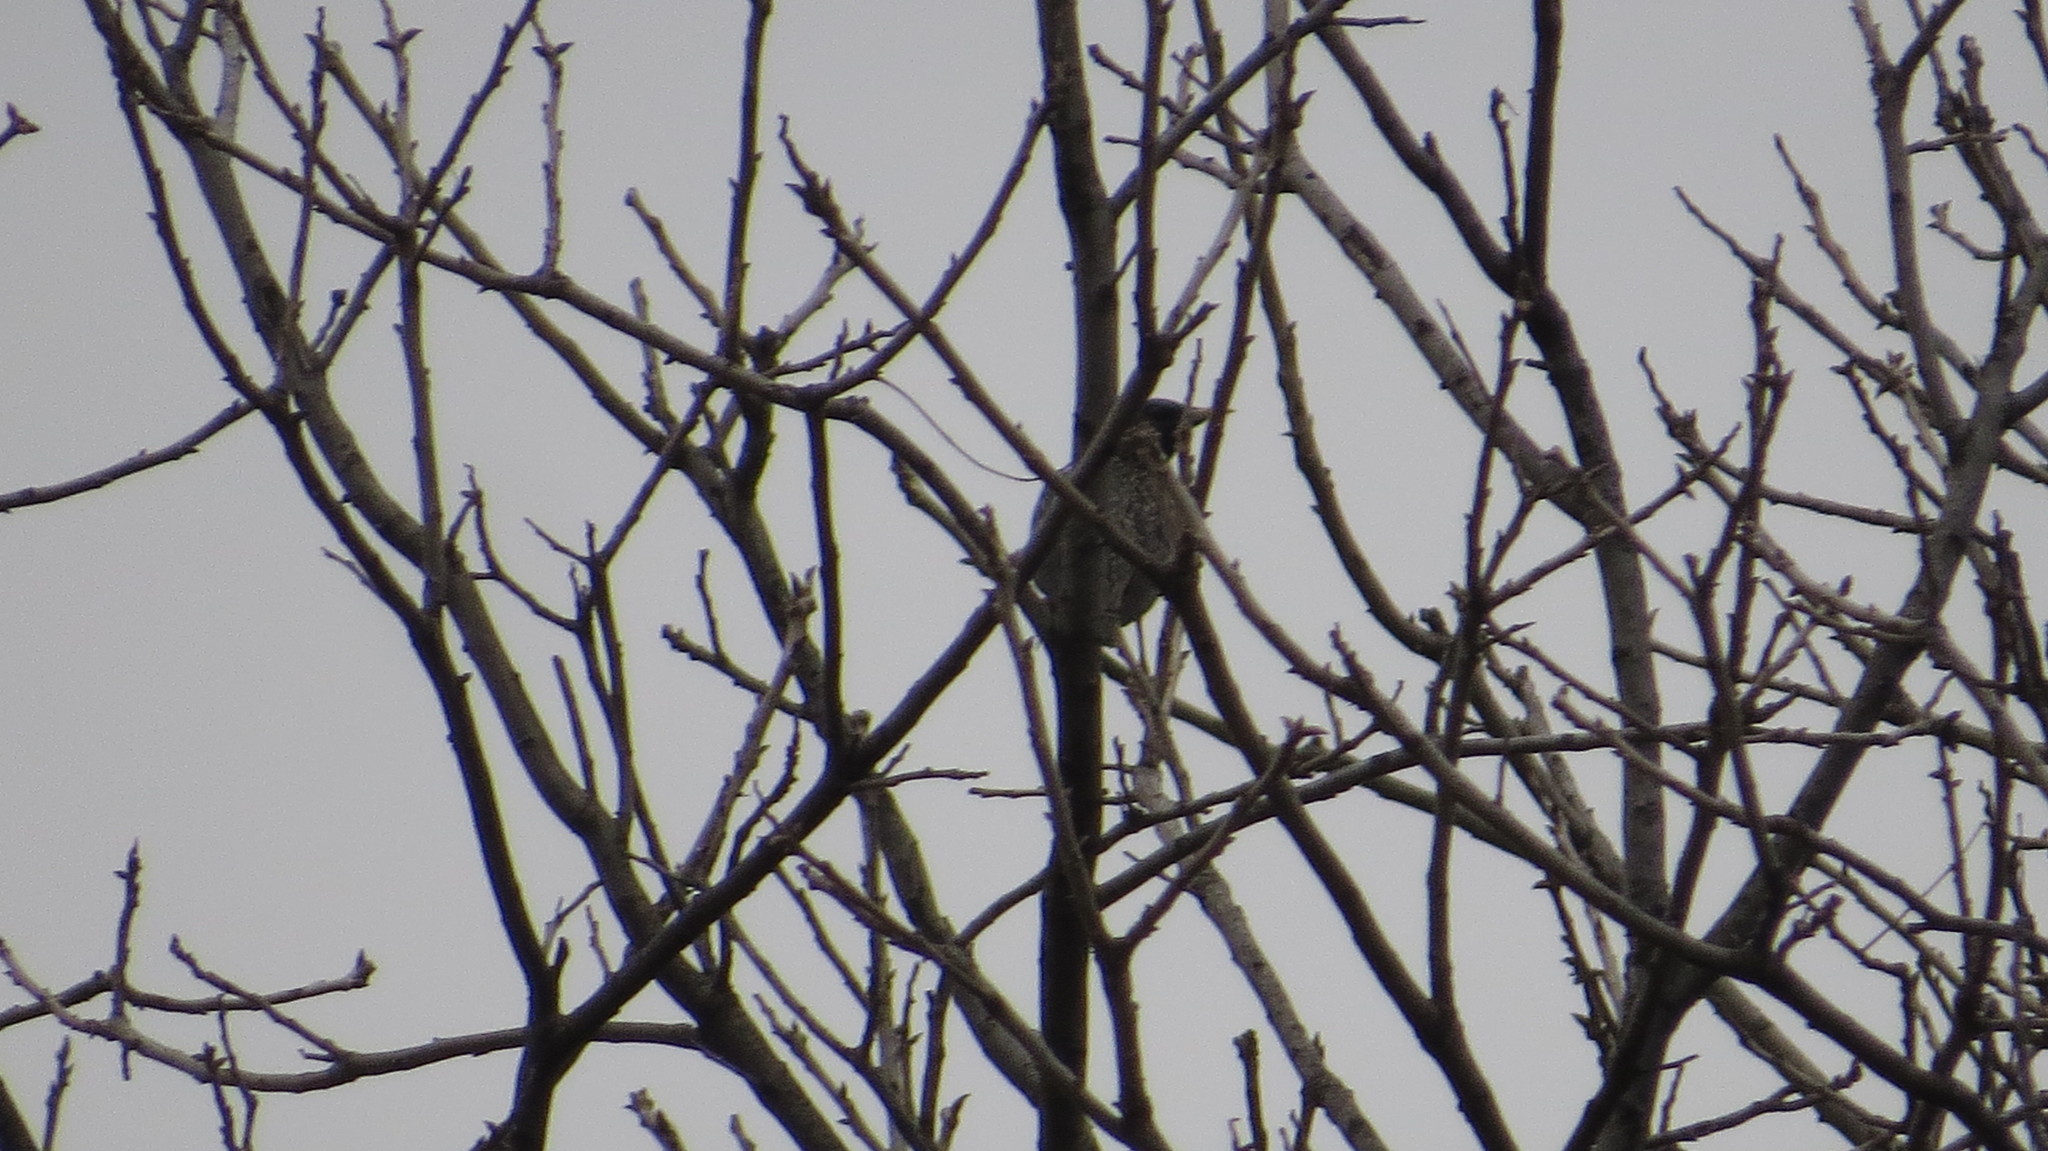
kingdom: Animalia
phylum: Chordata
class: Aves
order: Passeriformes
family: Sturnidae
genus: Sturnus
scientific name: Sturnus vulgaris
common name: Common starling
